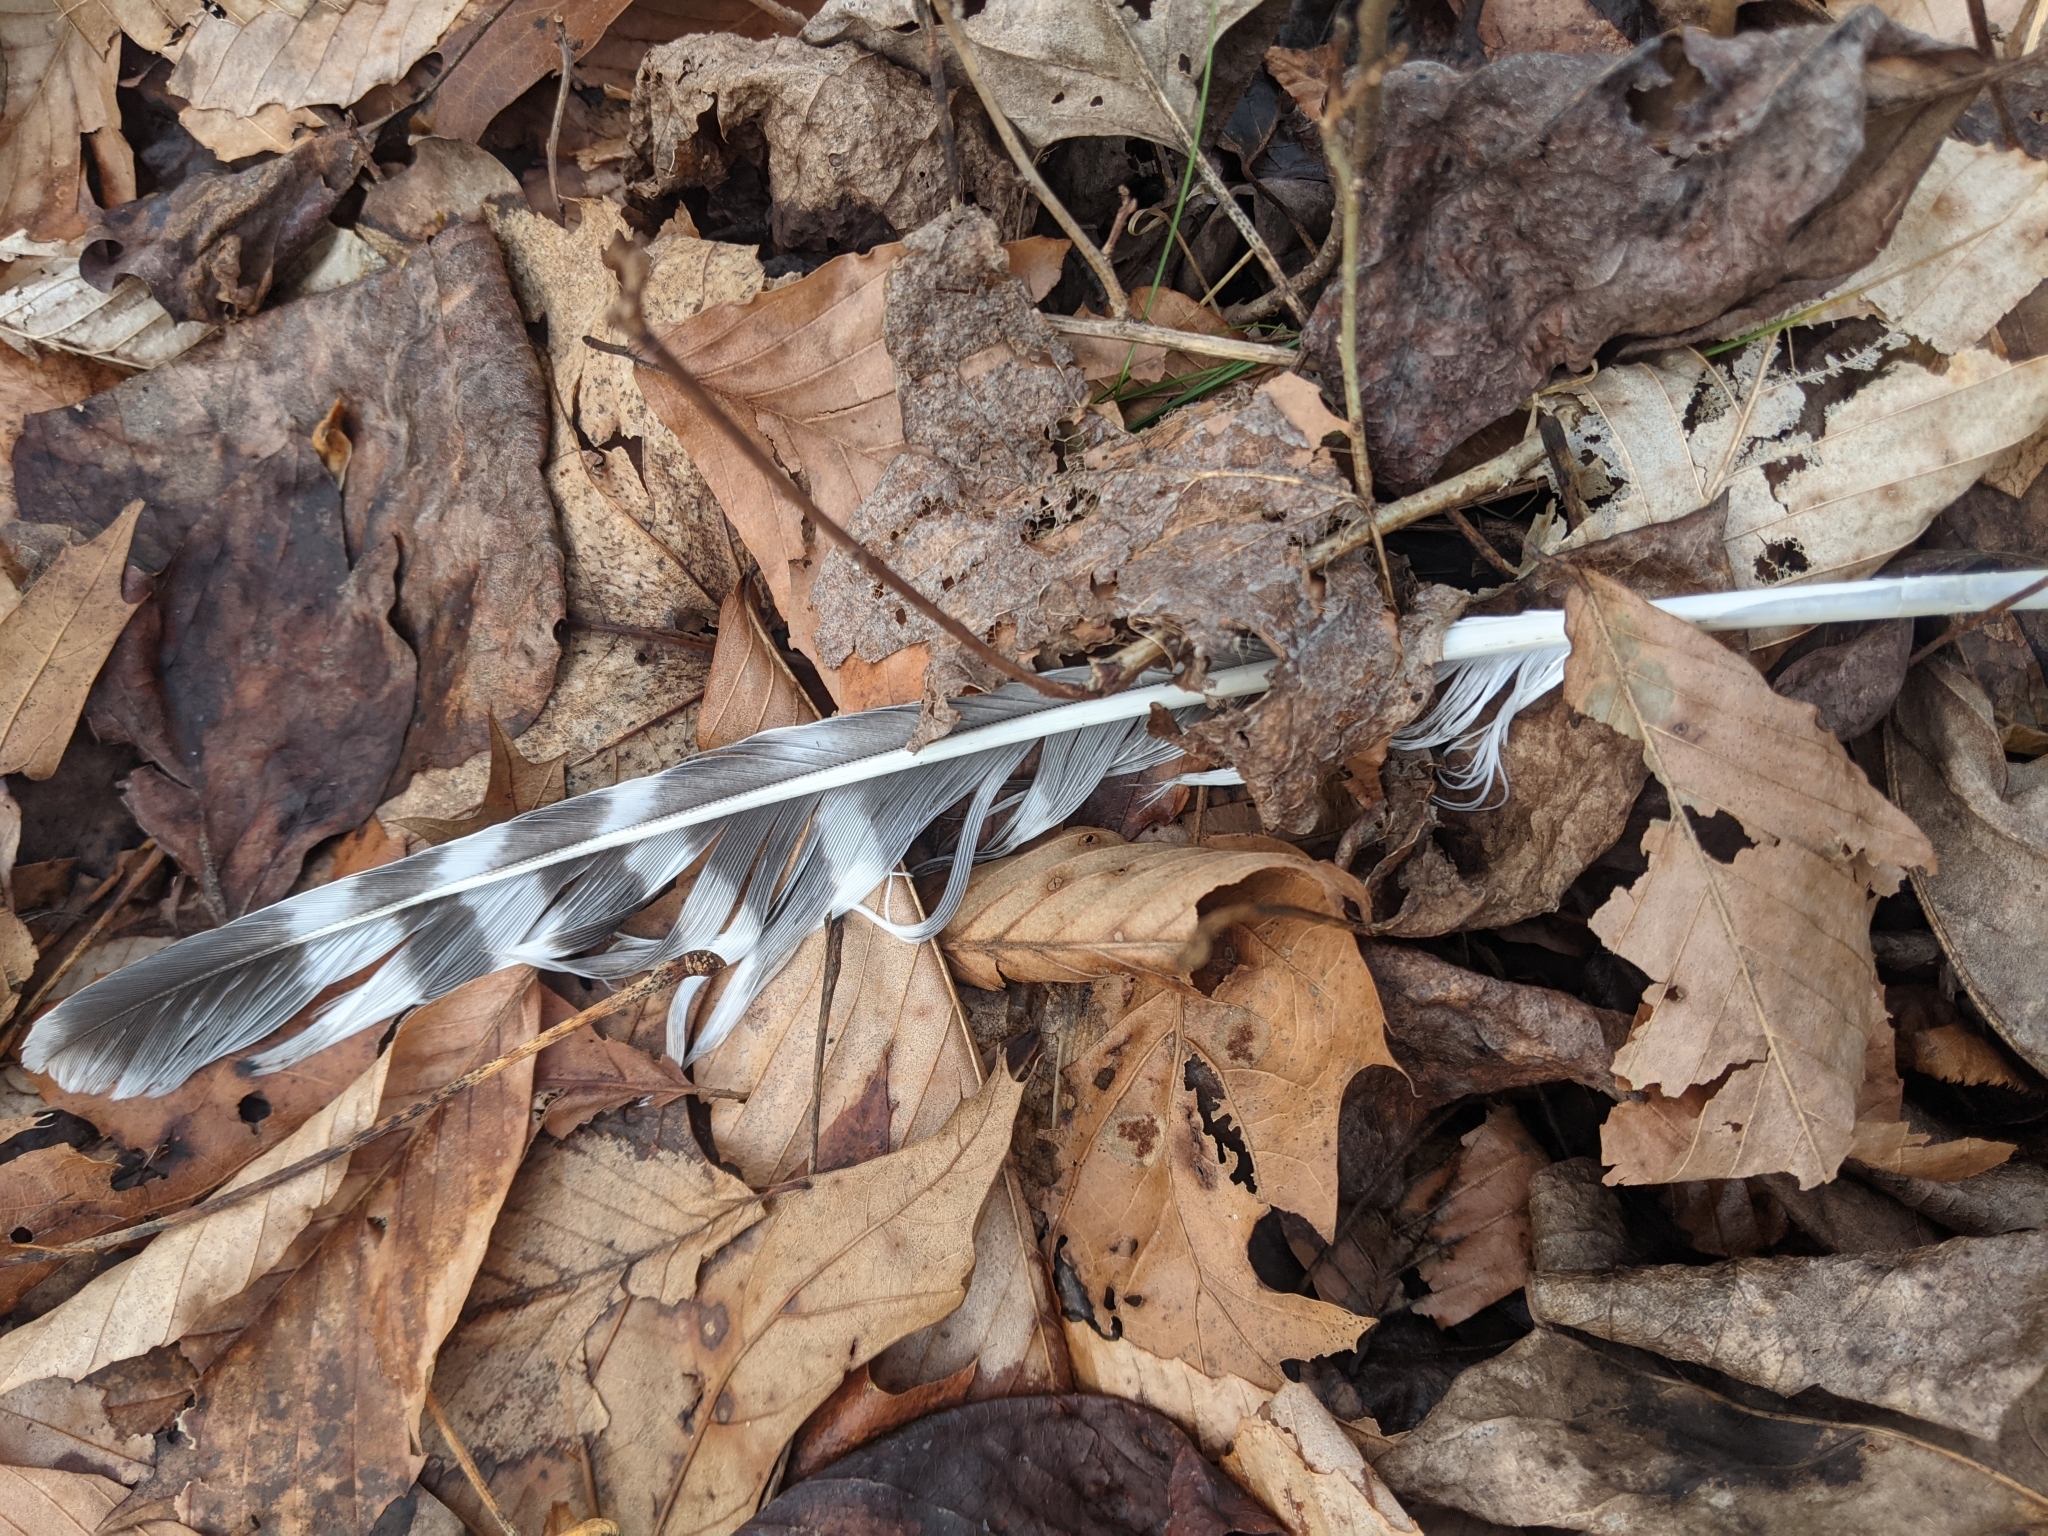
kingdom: Animalia
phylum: Chordata
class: Aves
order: Accipitriformes
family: Accipitridae
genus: Buteo
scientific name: Buteo lineatus
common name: Red-shouldered hawk
